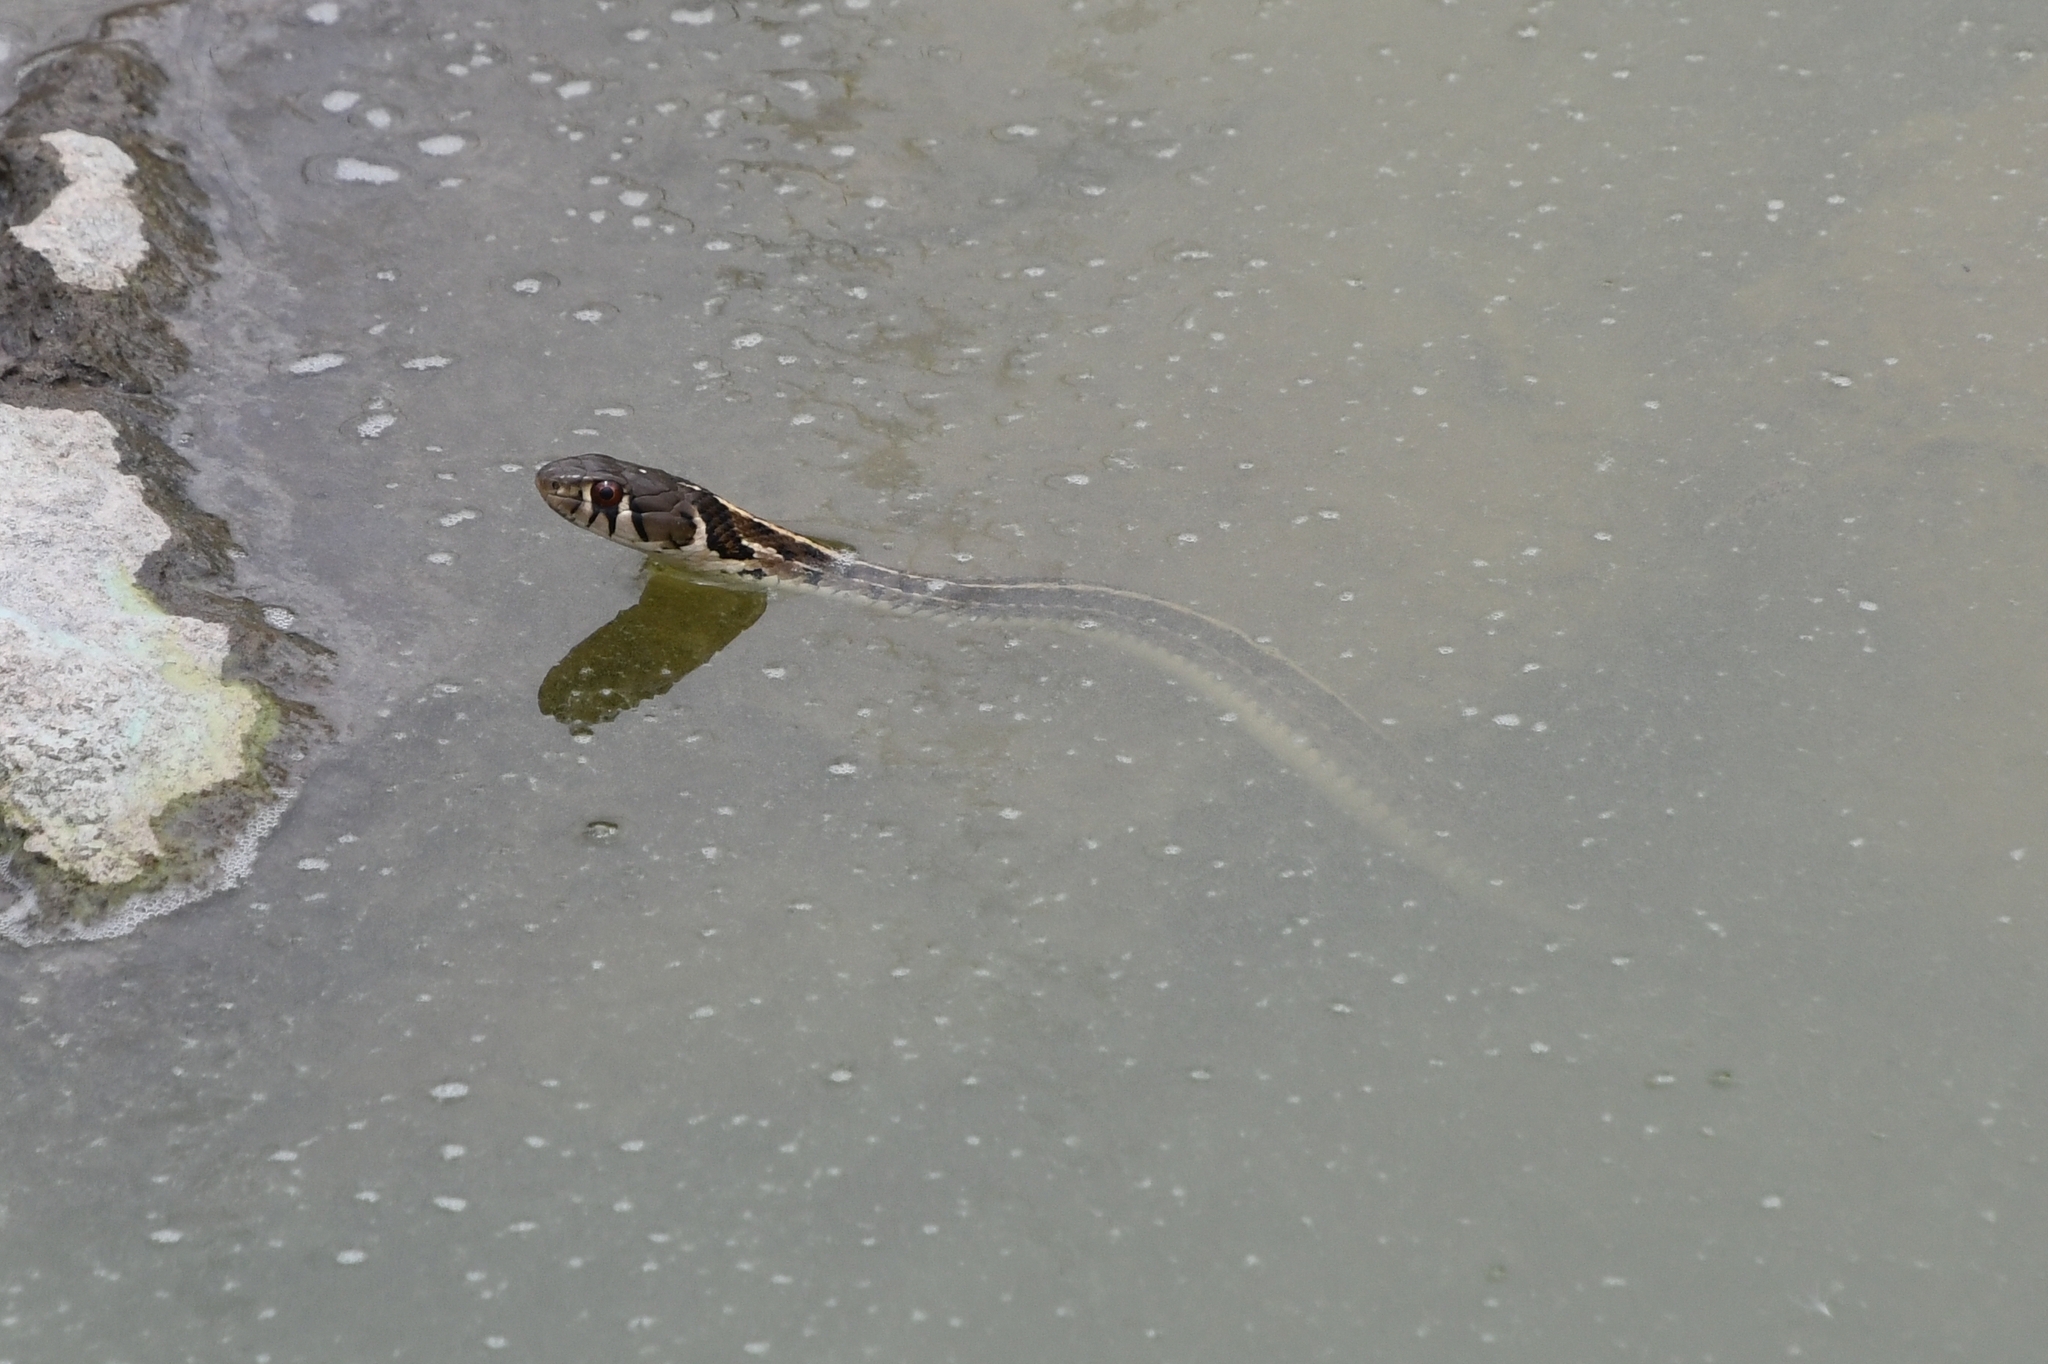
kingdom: Animalia
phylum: Chordata
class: Squamata
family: Colubridae
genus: Thamnophis
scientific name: Thamnophis marcianus
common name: Checkered garter snake
